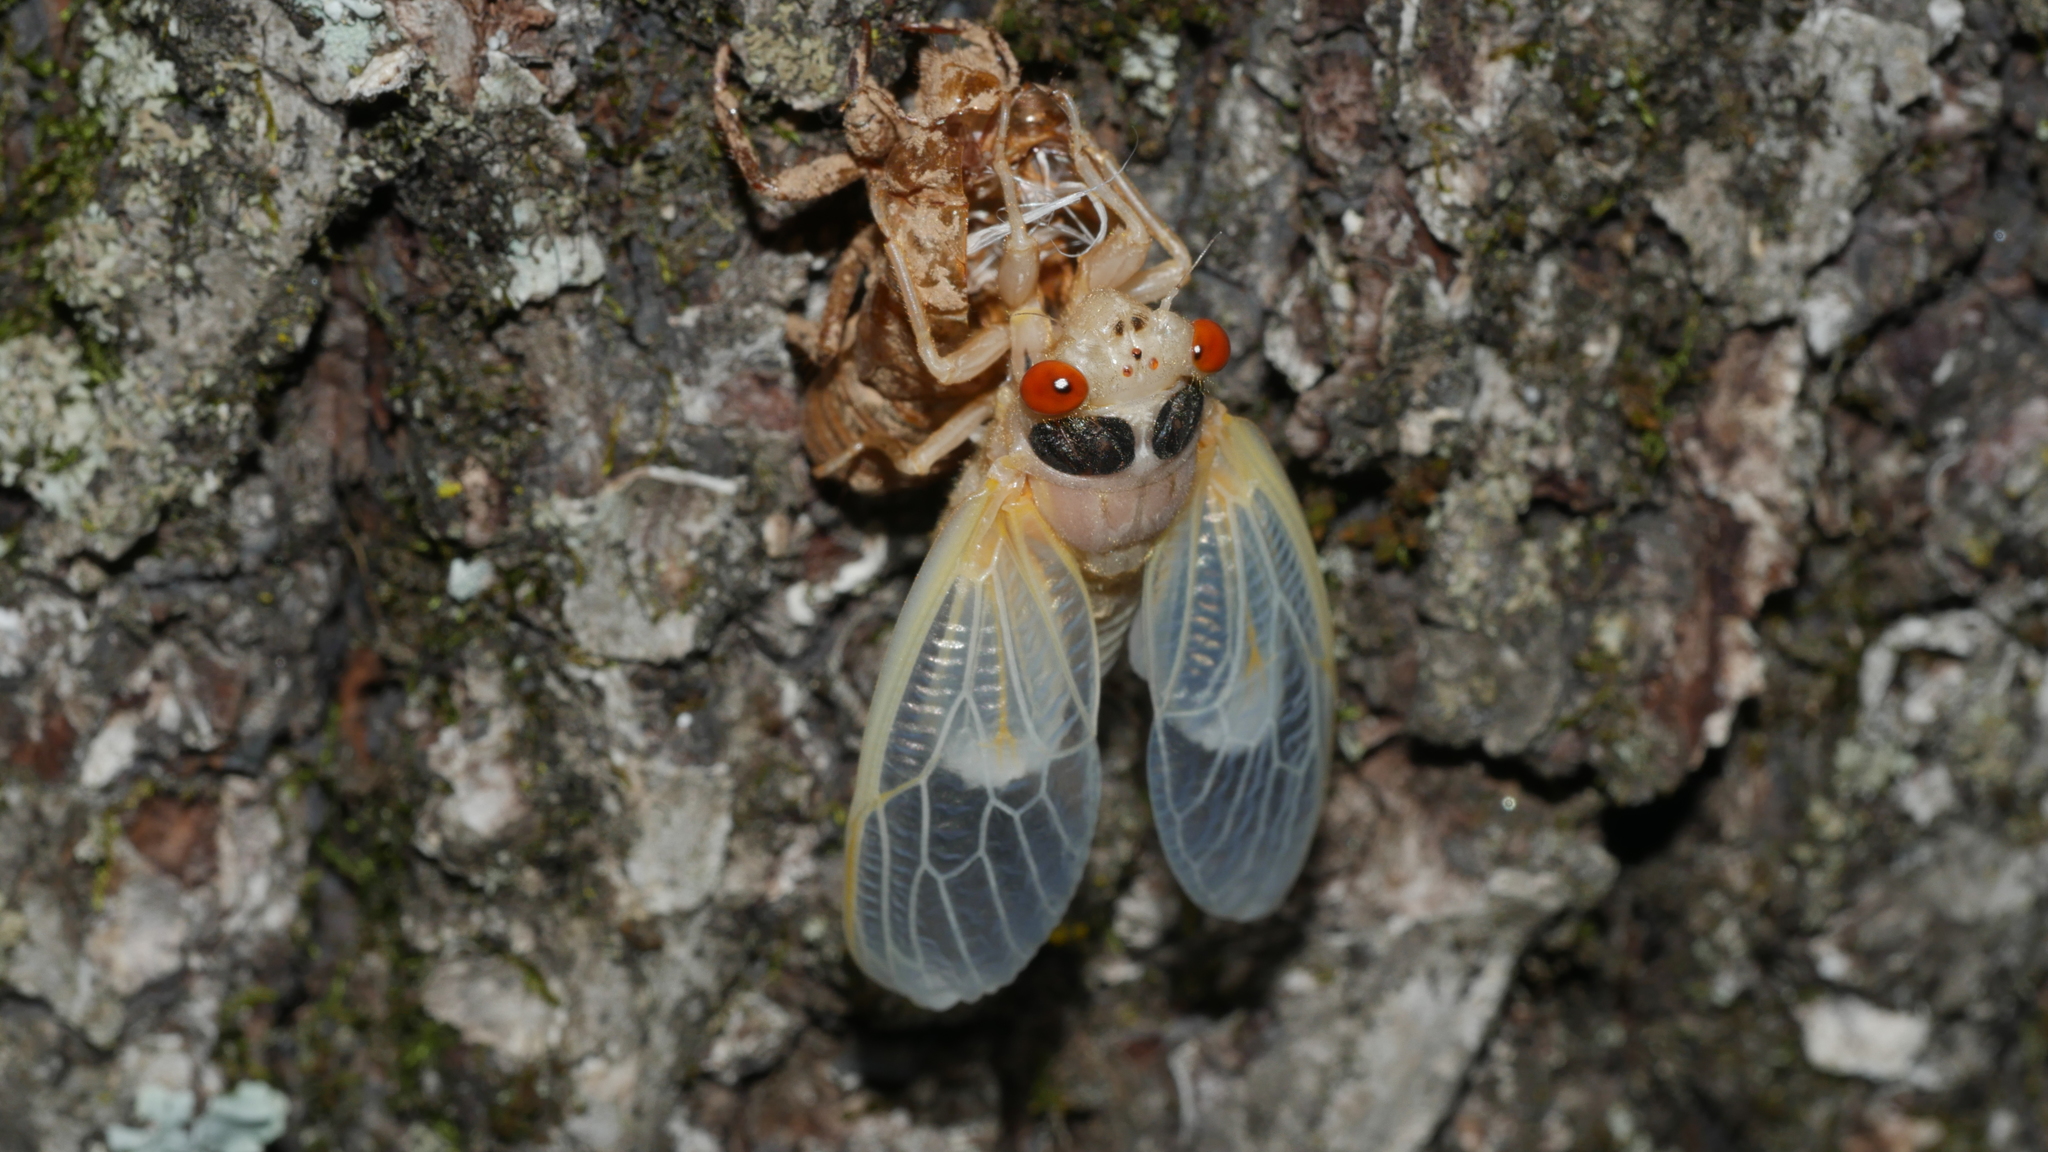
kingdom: Animalia
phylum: Arthropoda
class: Insecta
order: Hemiptera
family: Cicadidae
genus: Magicicada
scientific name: Magicicada
